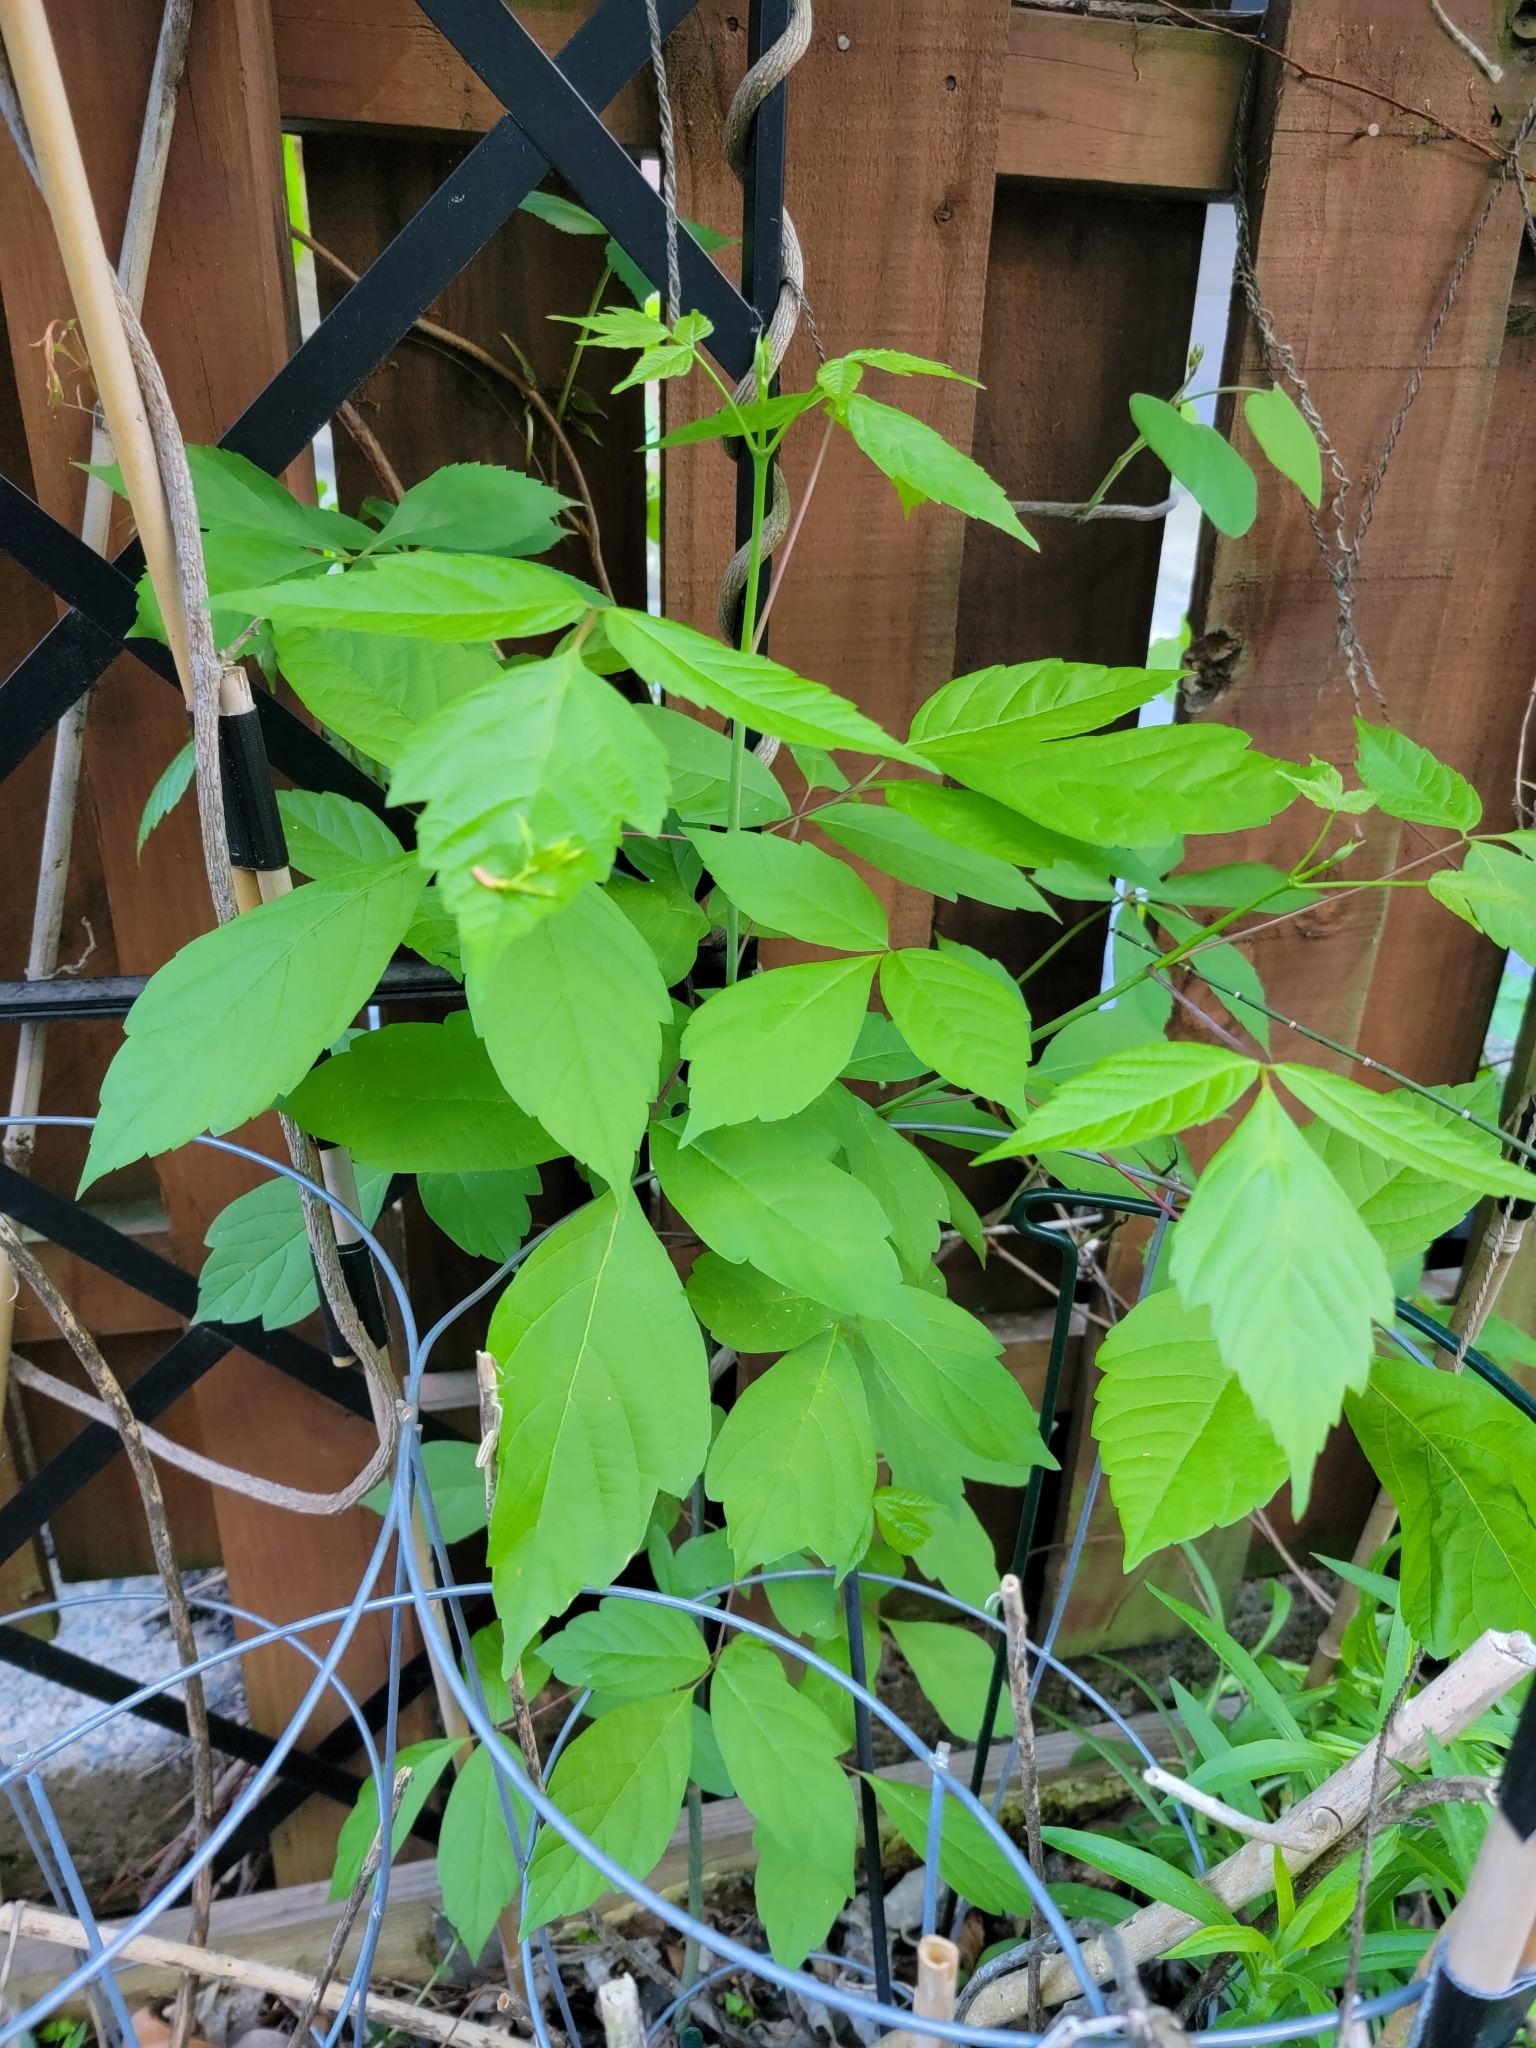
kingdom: Plantae
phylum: Tracheophyta
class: Magnoliopsida
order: Sapindales
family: Sapindaceae
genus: Acer
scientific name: Acer negundo
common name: Ashleaf maple
